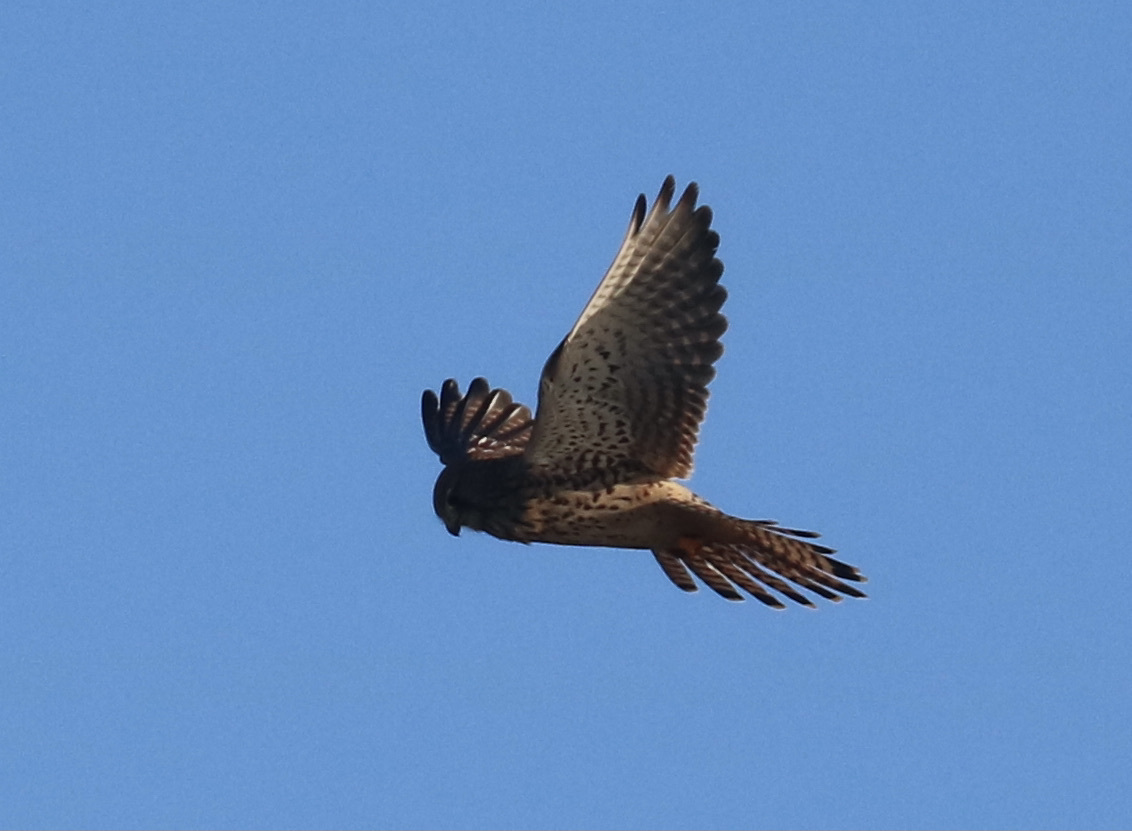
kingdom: Animalia
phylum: Chordata
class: Aves
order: Falconiformes
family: Falconidae
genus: Falco
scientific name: Falco tinnunculus
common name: Common kestrel
